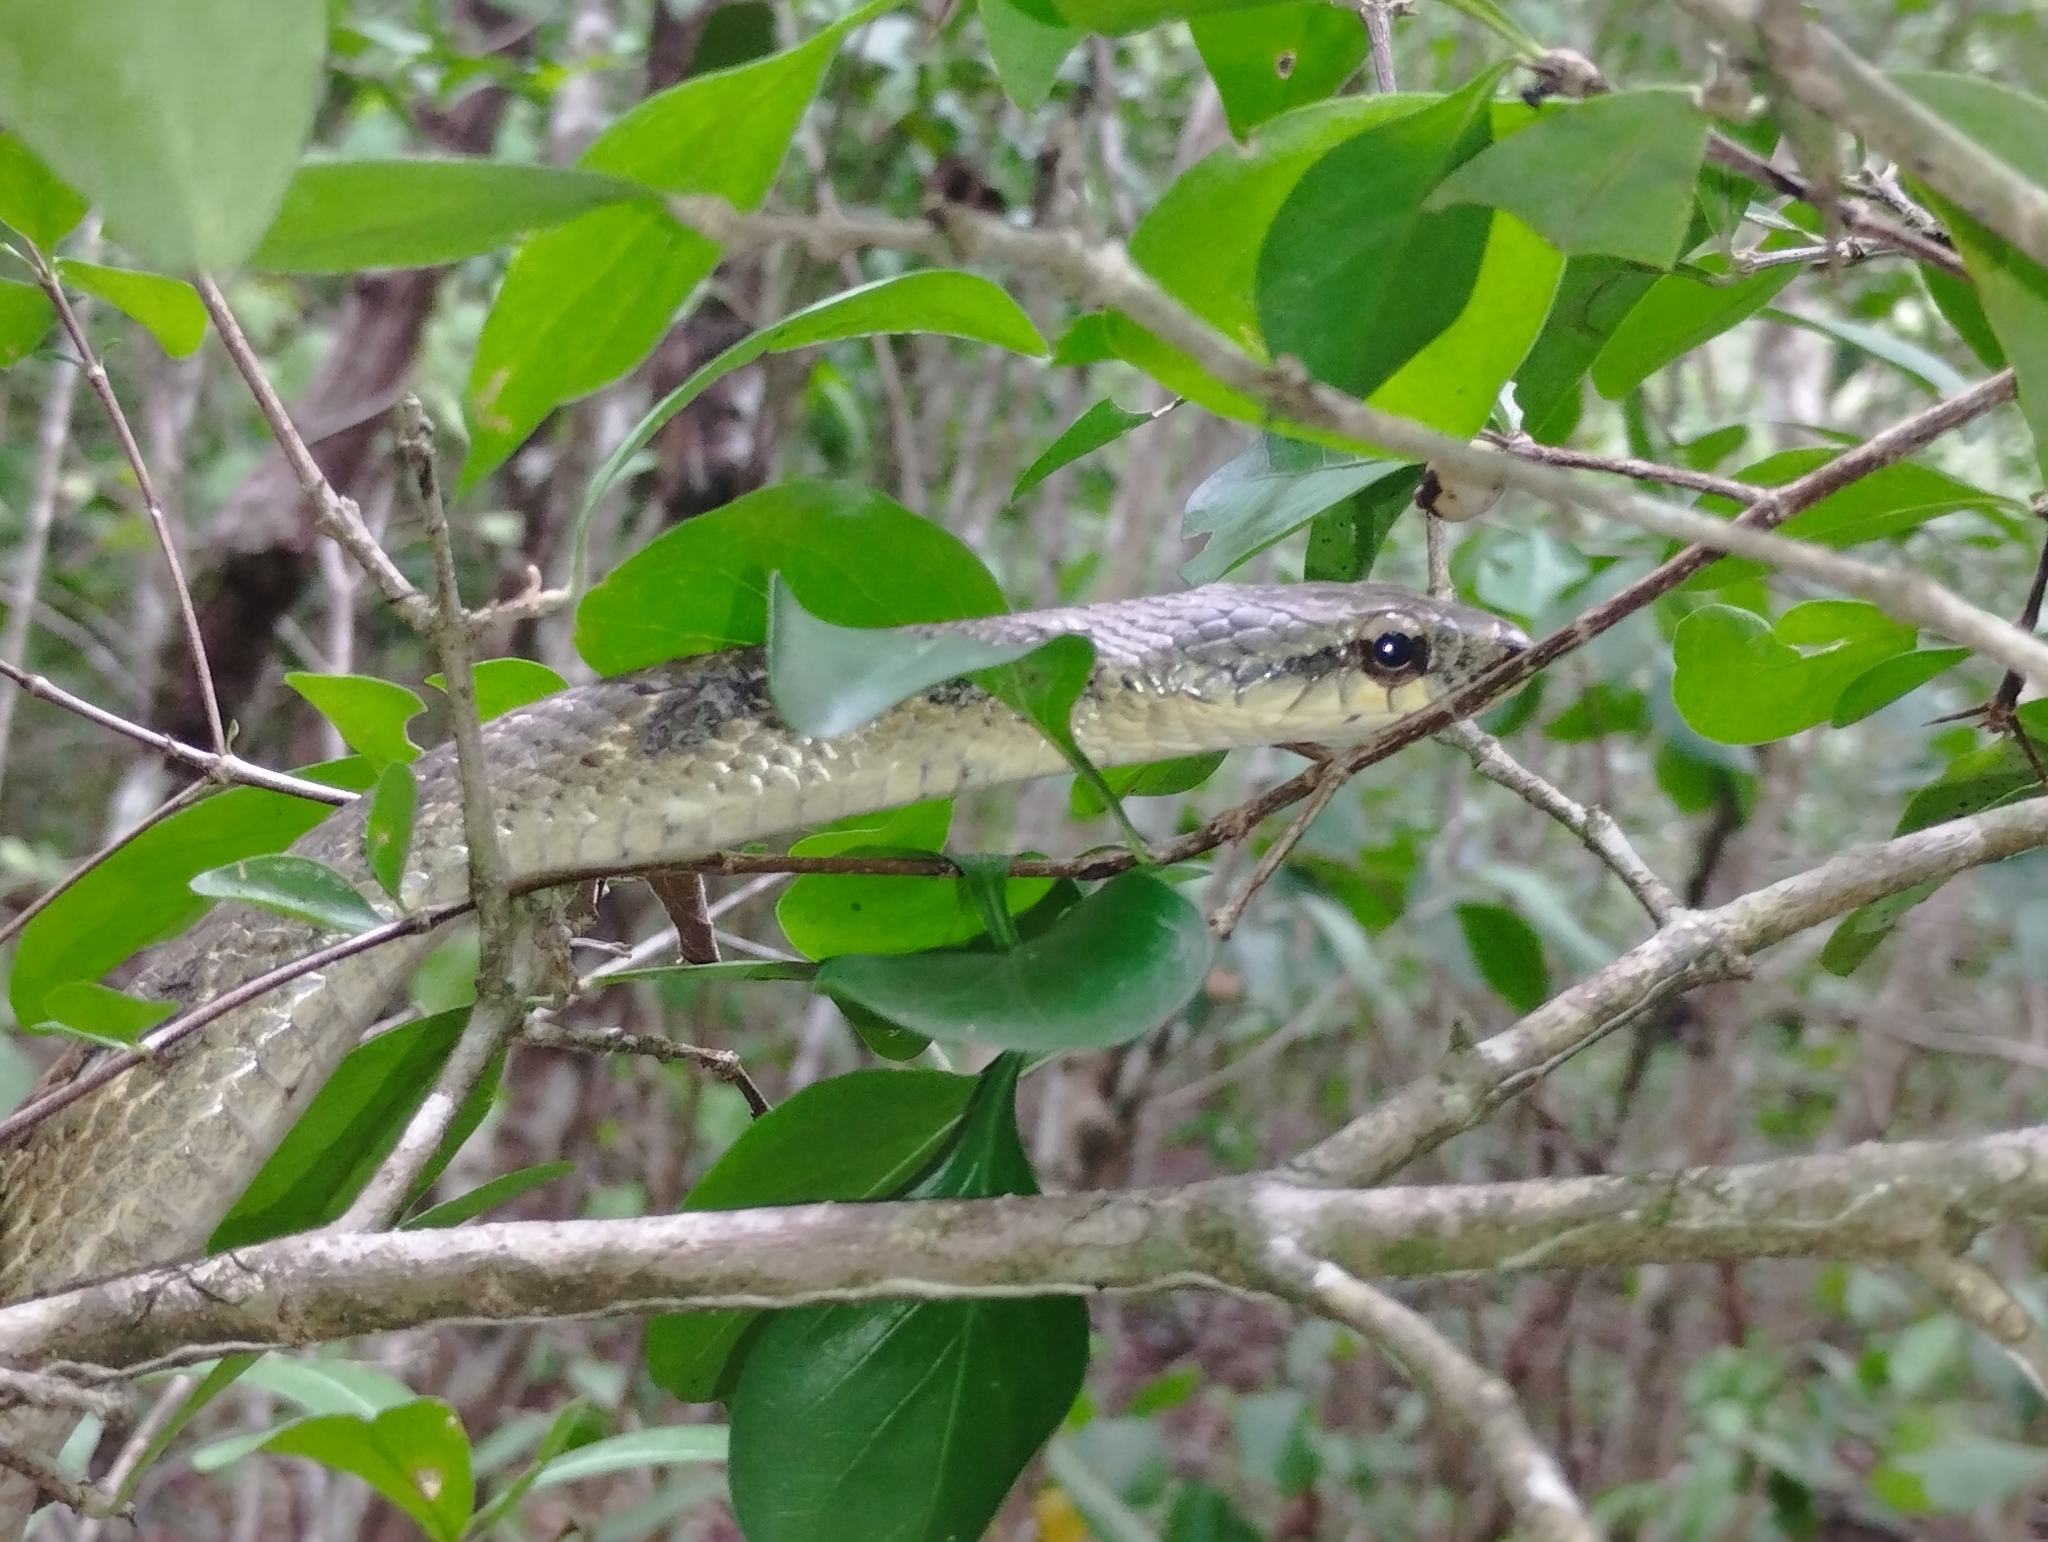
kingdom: Animalia
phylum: Chordata
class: Squamata
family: Colubridae
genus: Phrynonax
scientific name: Phrynonax poecilonotus
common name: Puffing snake
